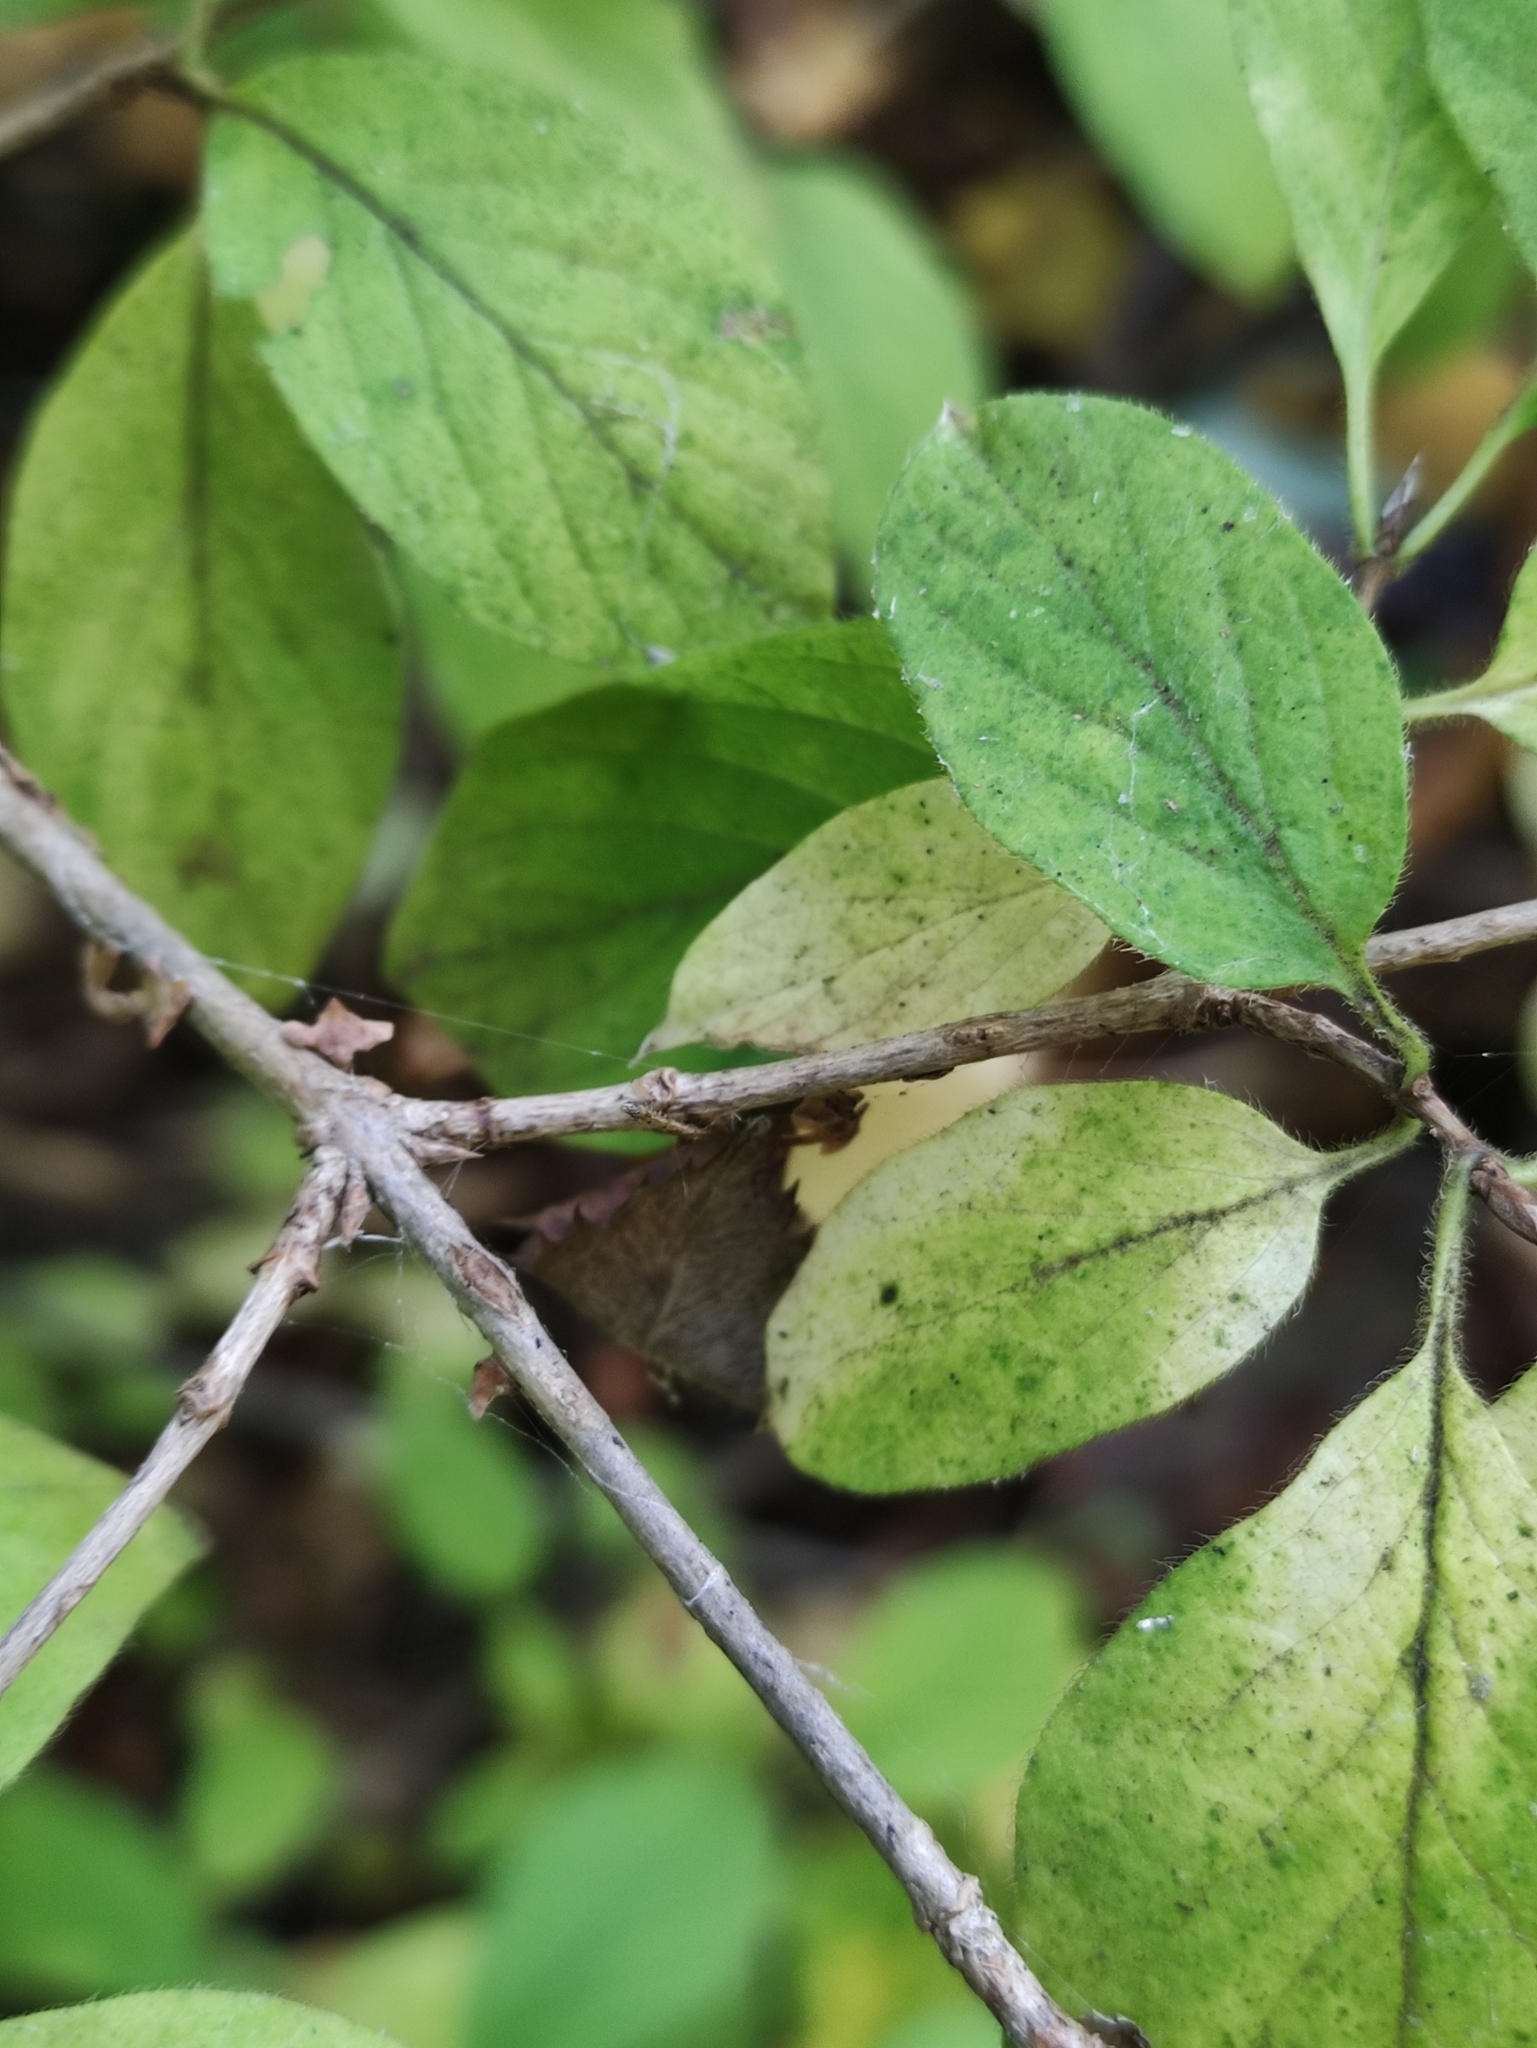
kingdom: Plantae
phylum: Tracheophyta
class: Magnoliopsida
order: Dipsacales
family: Caprifoliaceae
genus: Lonicera
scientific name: Lonicera xylosteum
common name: Fly honeysuckle
